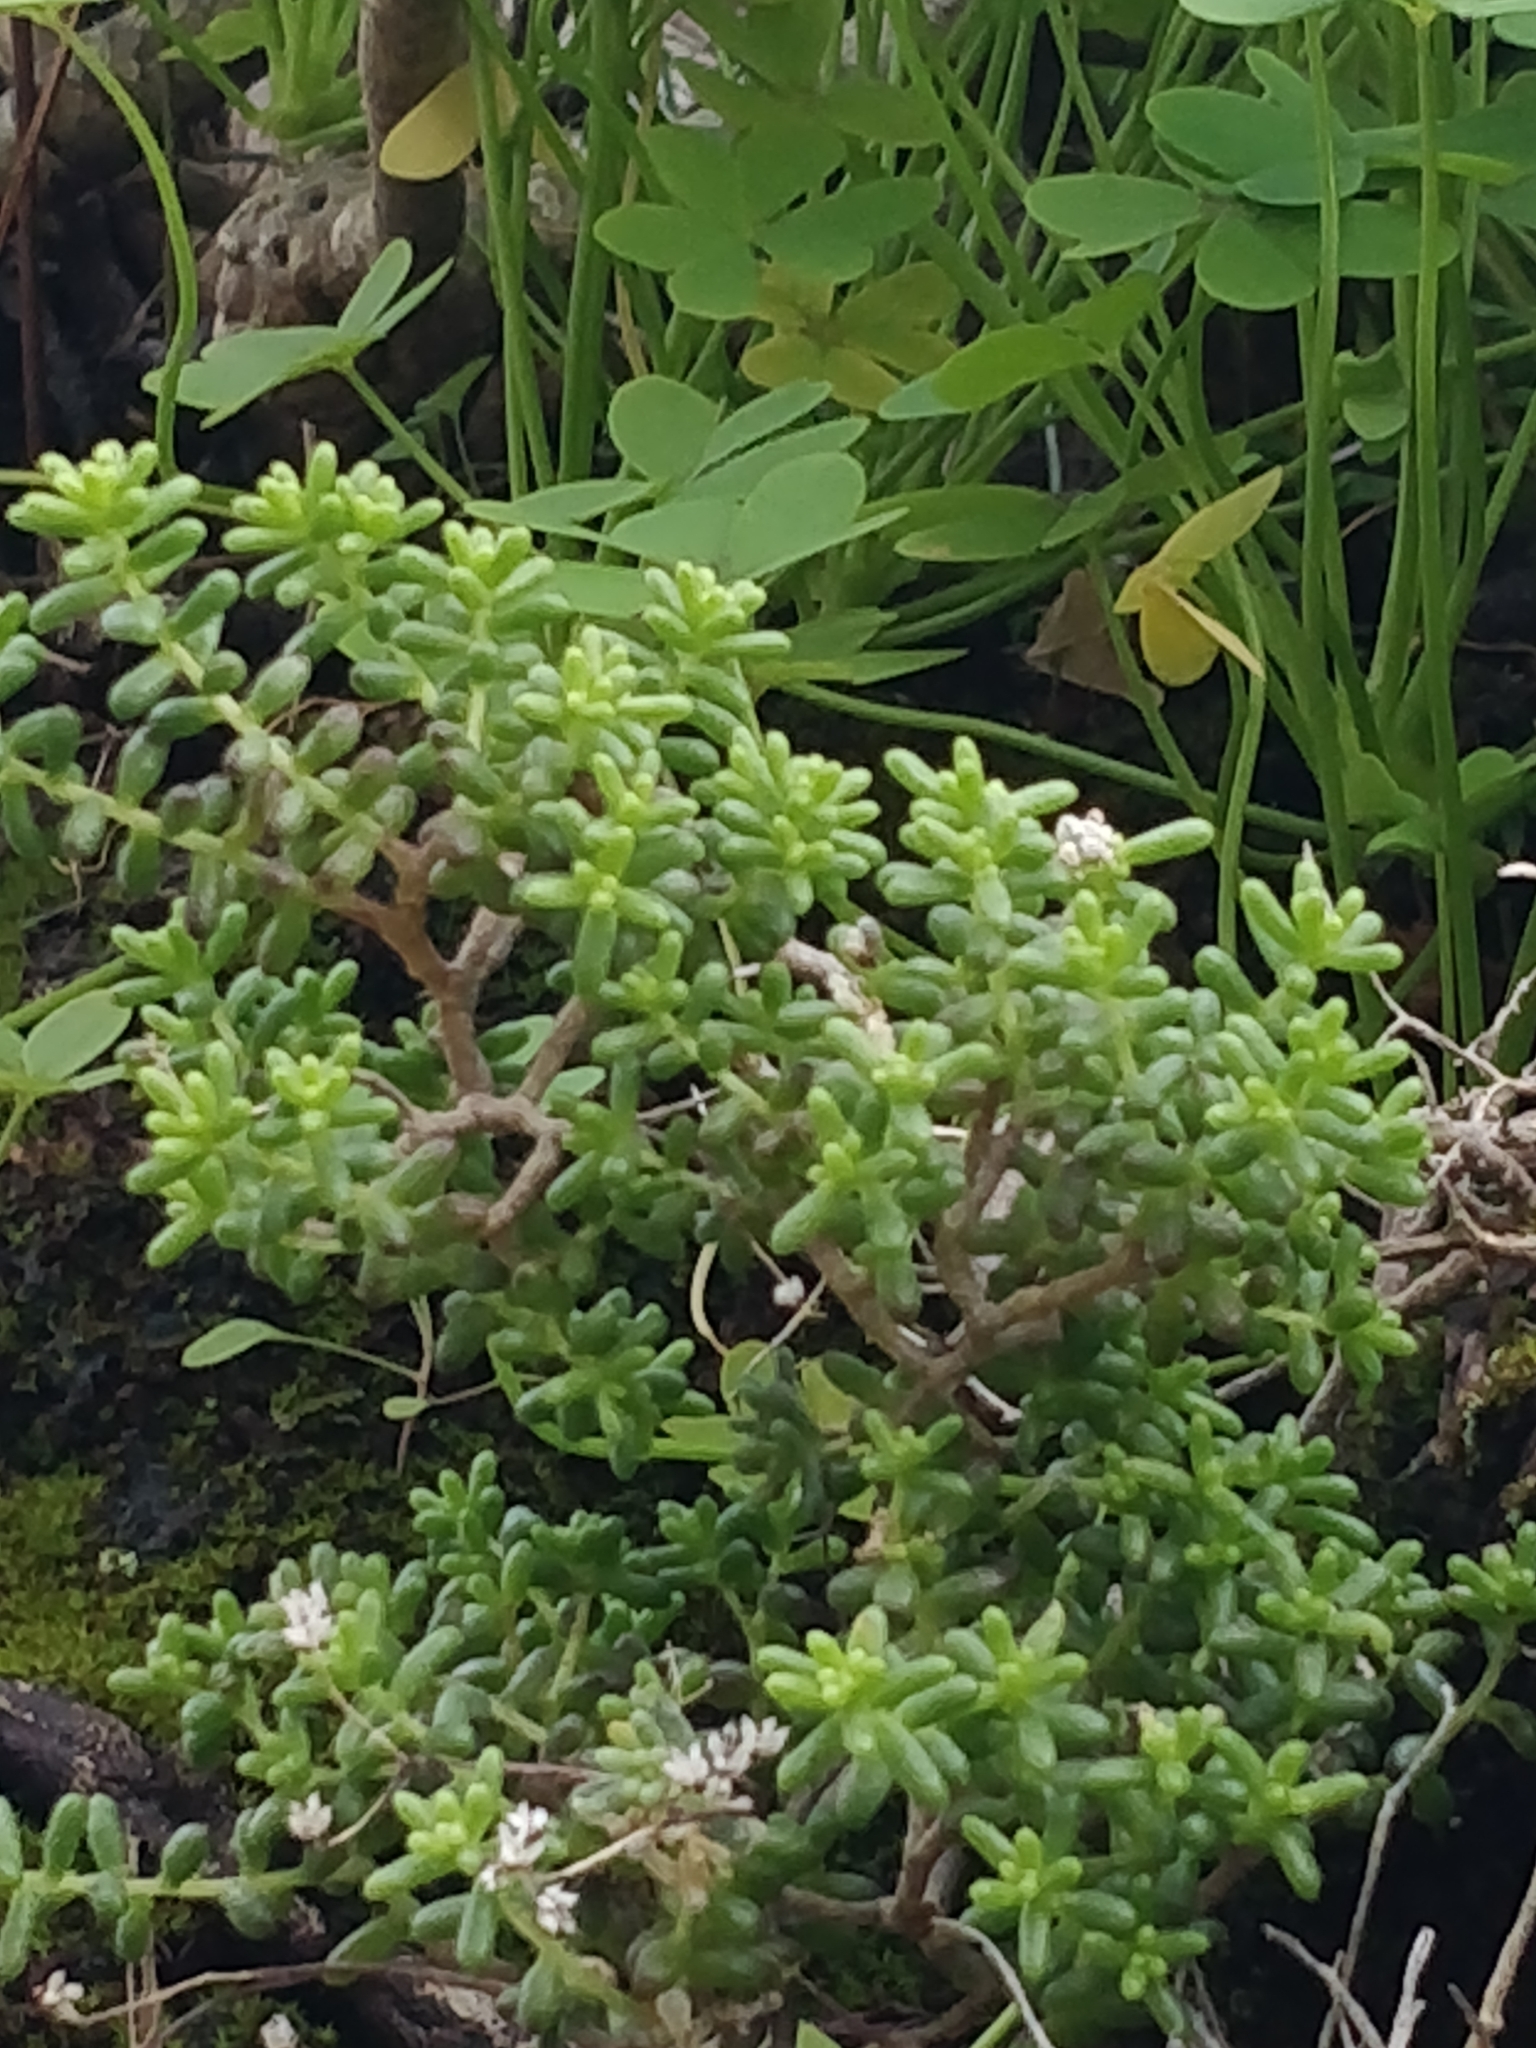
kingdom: Plantae
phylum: Tracheophyta
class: Magnoliopsida
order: Saxifragales
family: Crassulaceae
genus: Sedum
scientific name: Sedum nudum
